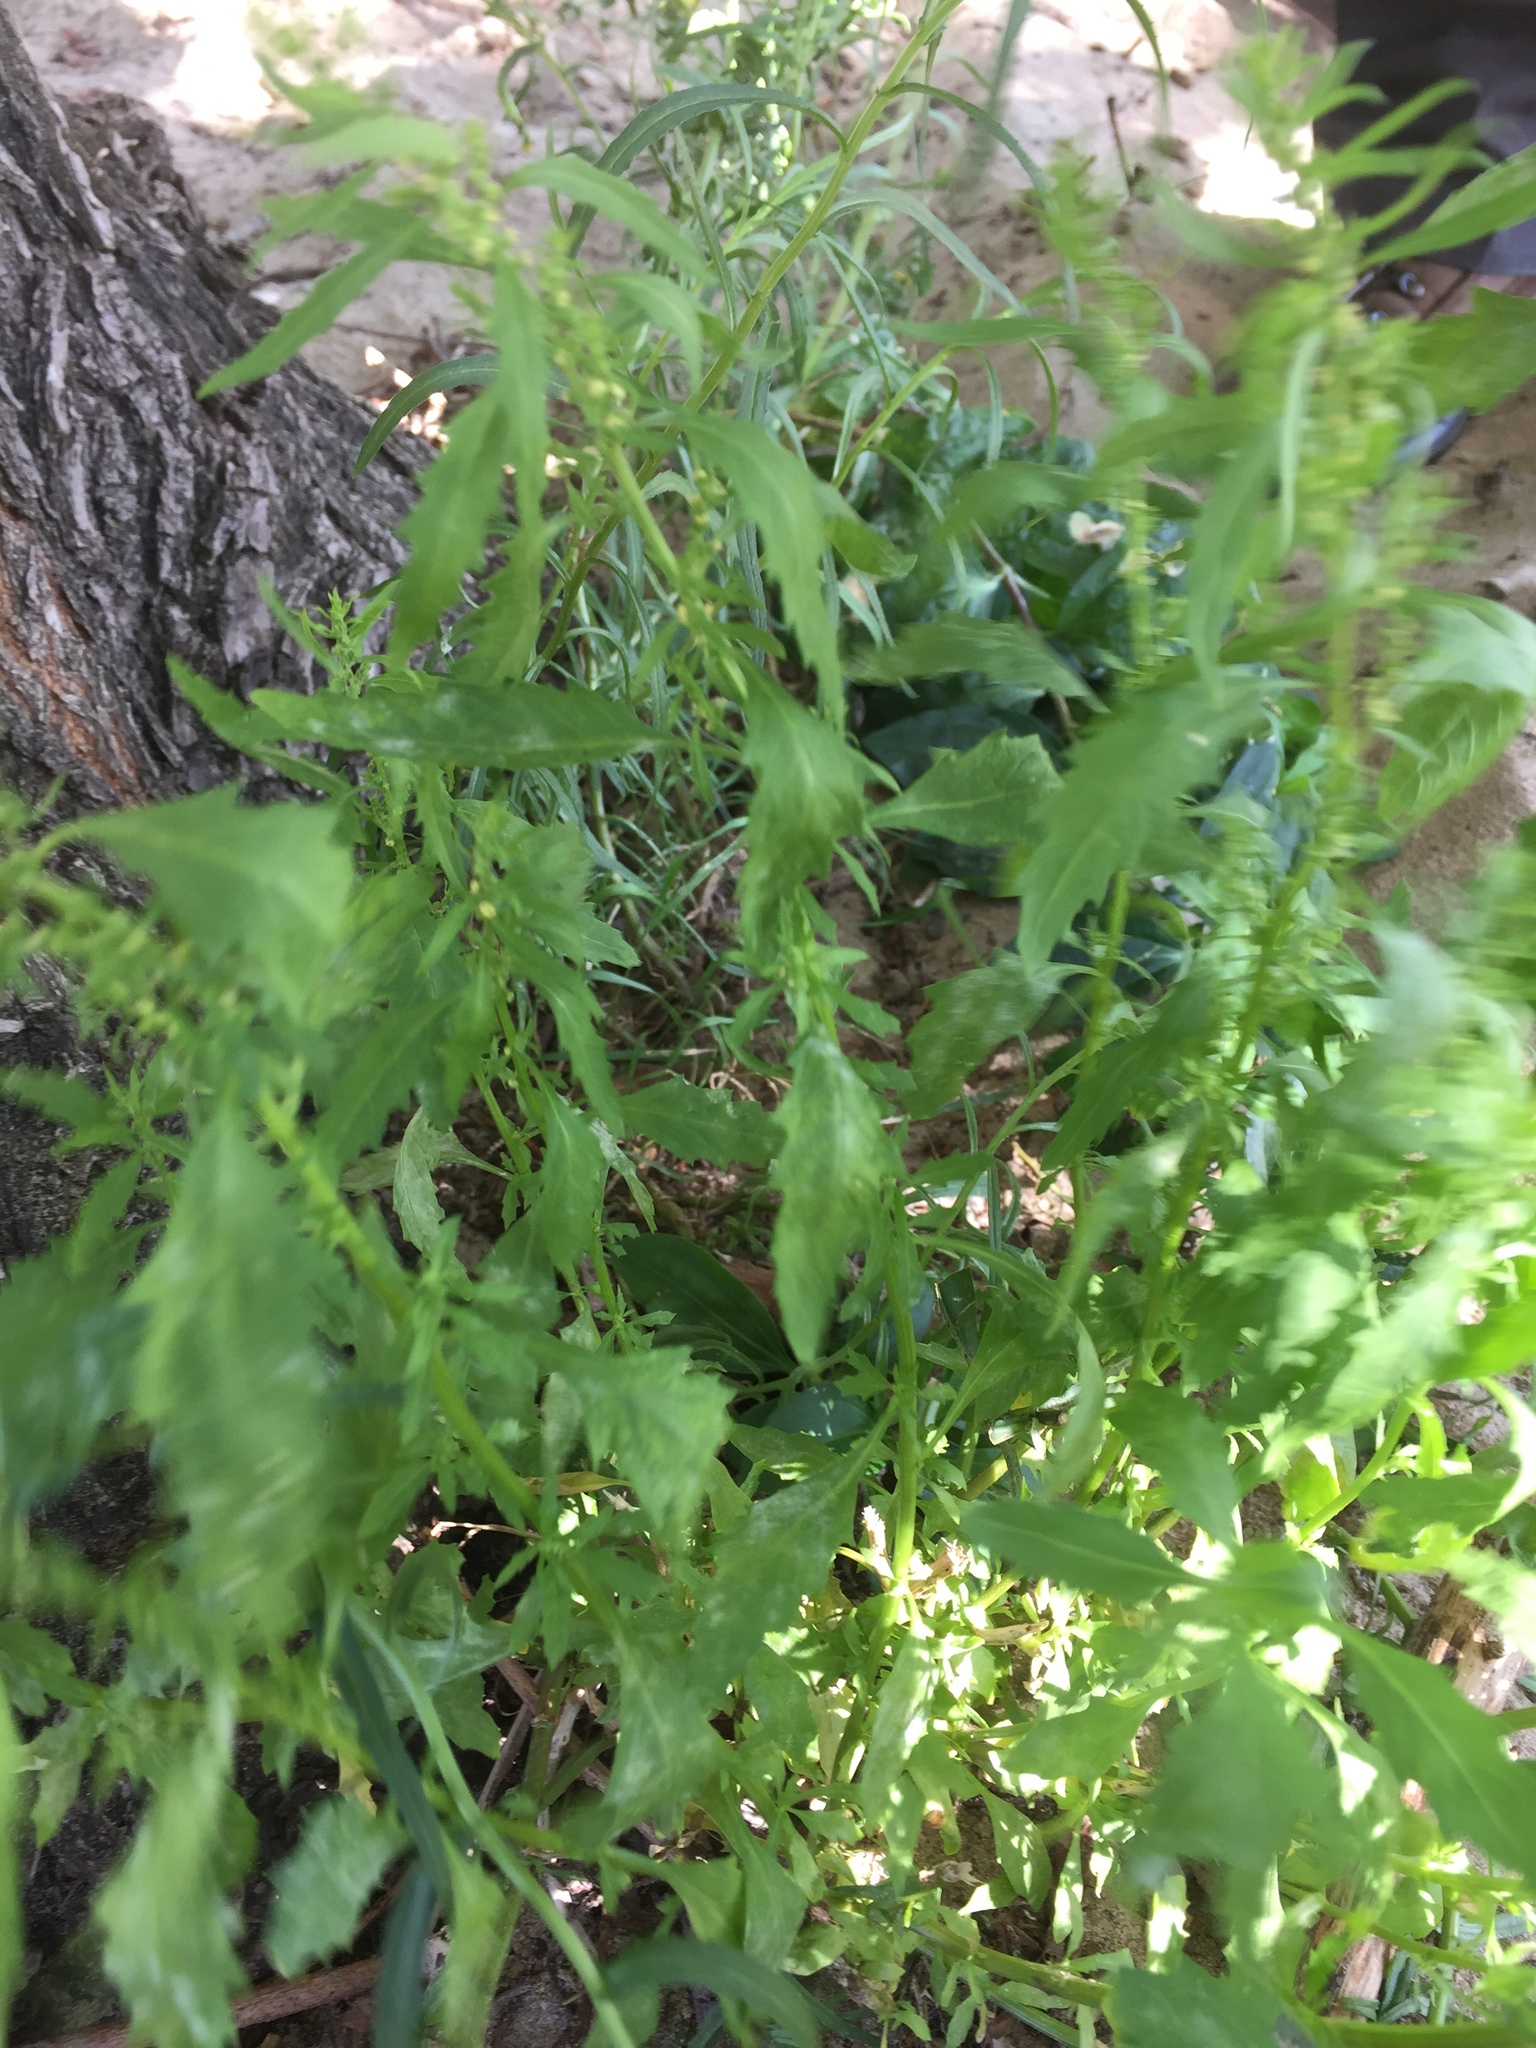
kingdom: Plantae
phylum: Tracheophyta
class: Magnoliopsida
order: Caryophyllales
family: Amaranthaceae
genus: Dysphania
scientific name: Dysphania ambrosioides
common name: Wormseed
